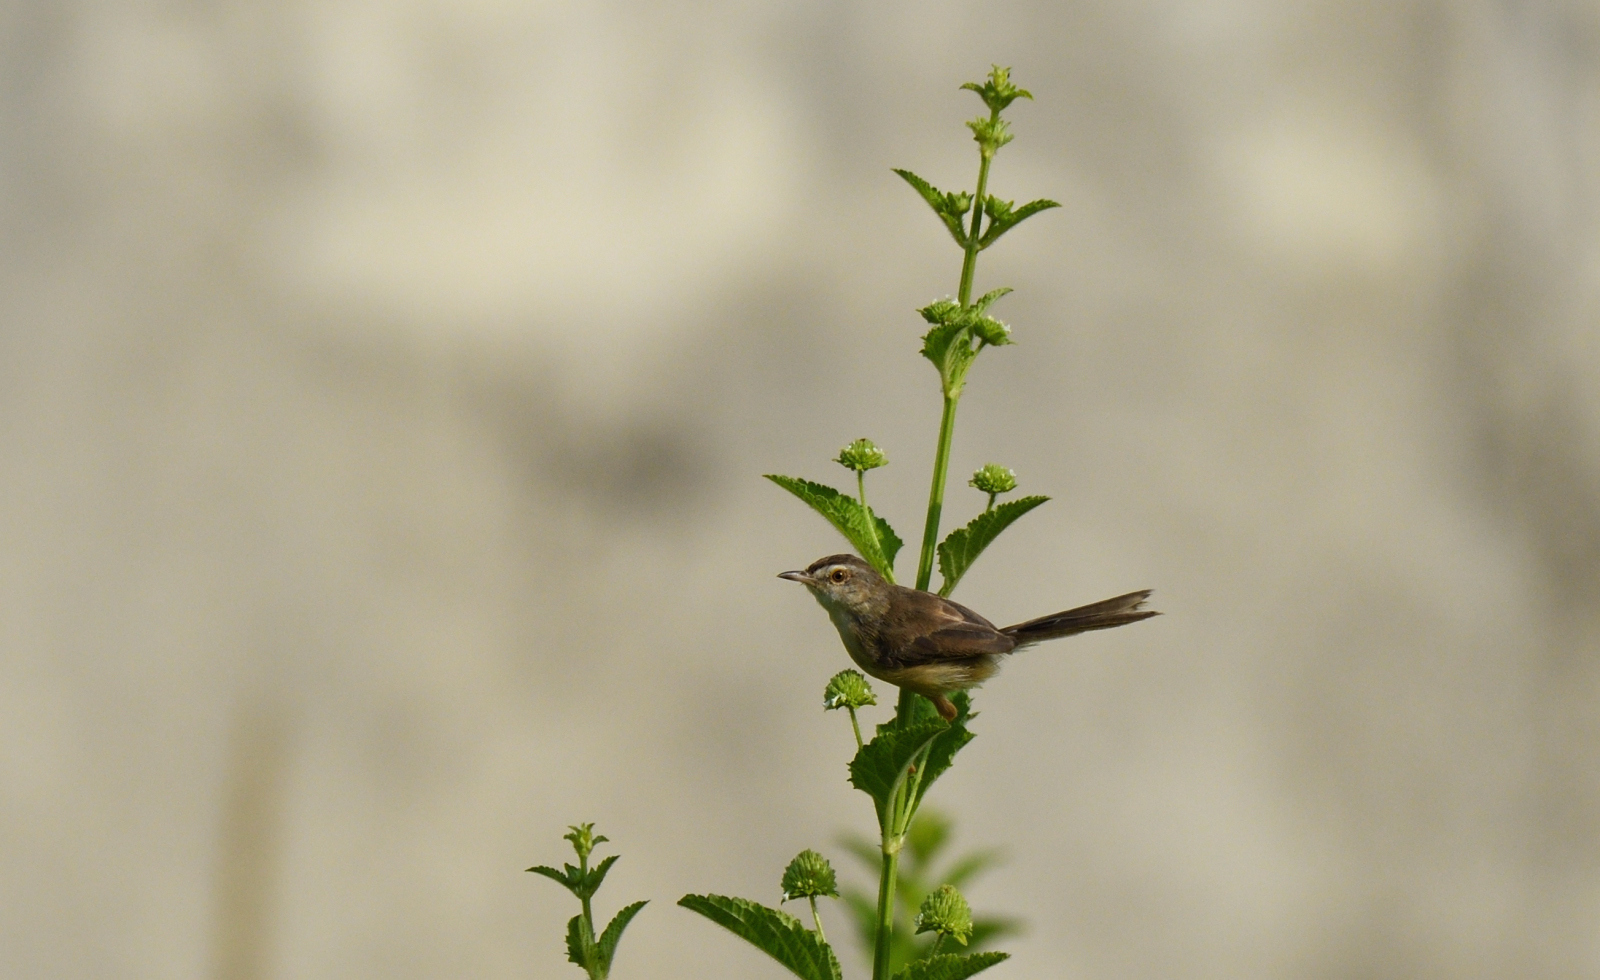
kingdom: Animalia
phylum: Chordata
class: Aves
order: Passeriformes
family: Cisticolidae
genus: Prinia
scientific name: Prinia inornata
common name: Plain prinia
